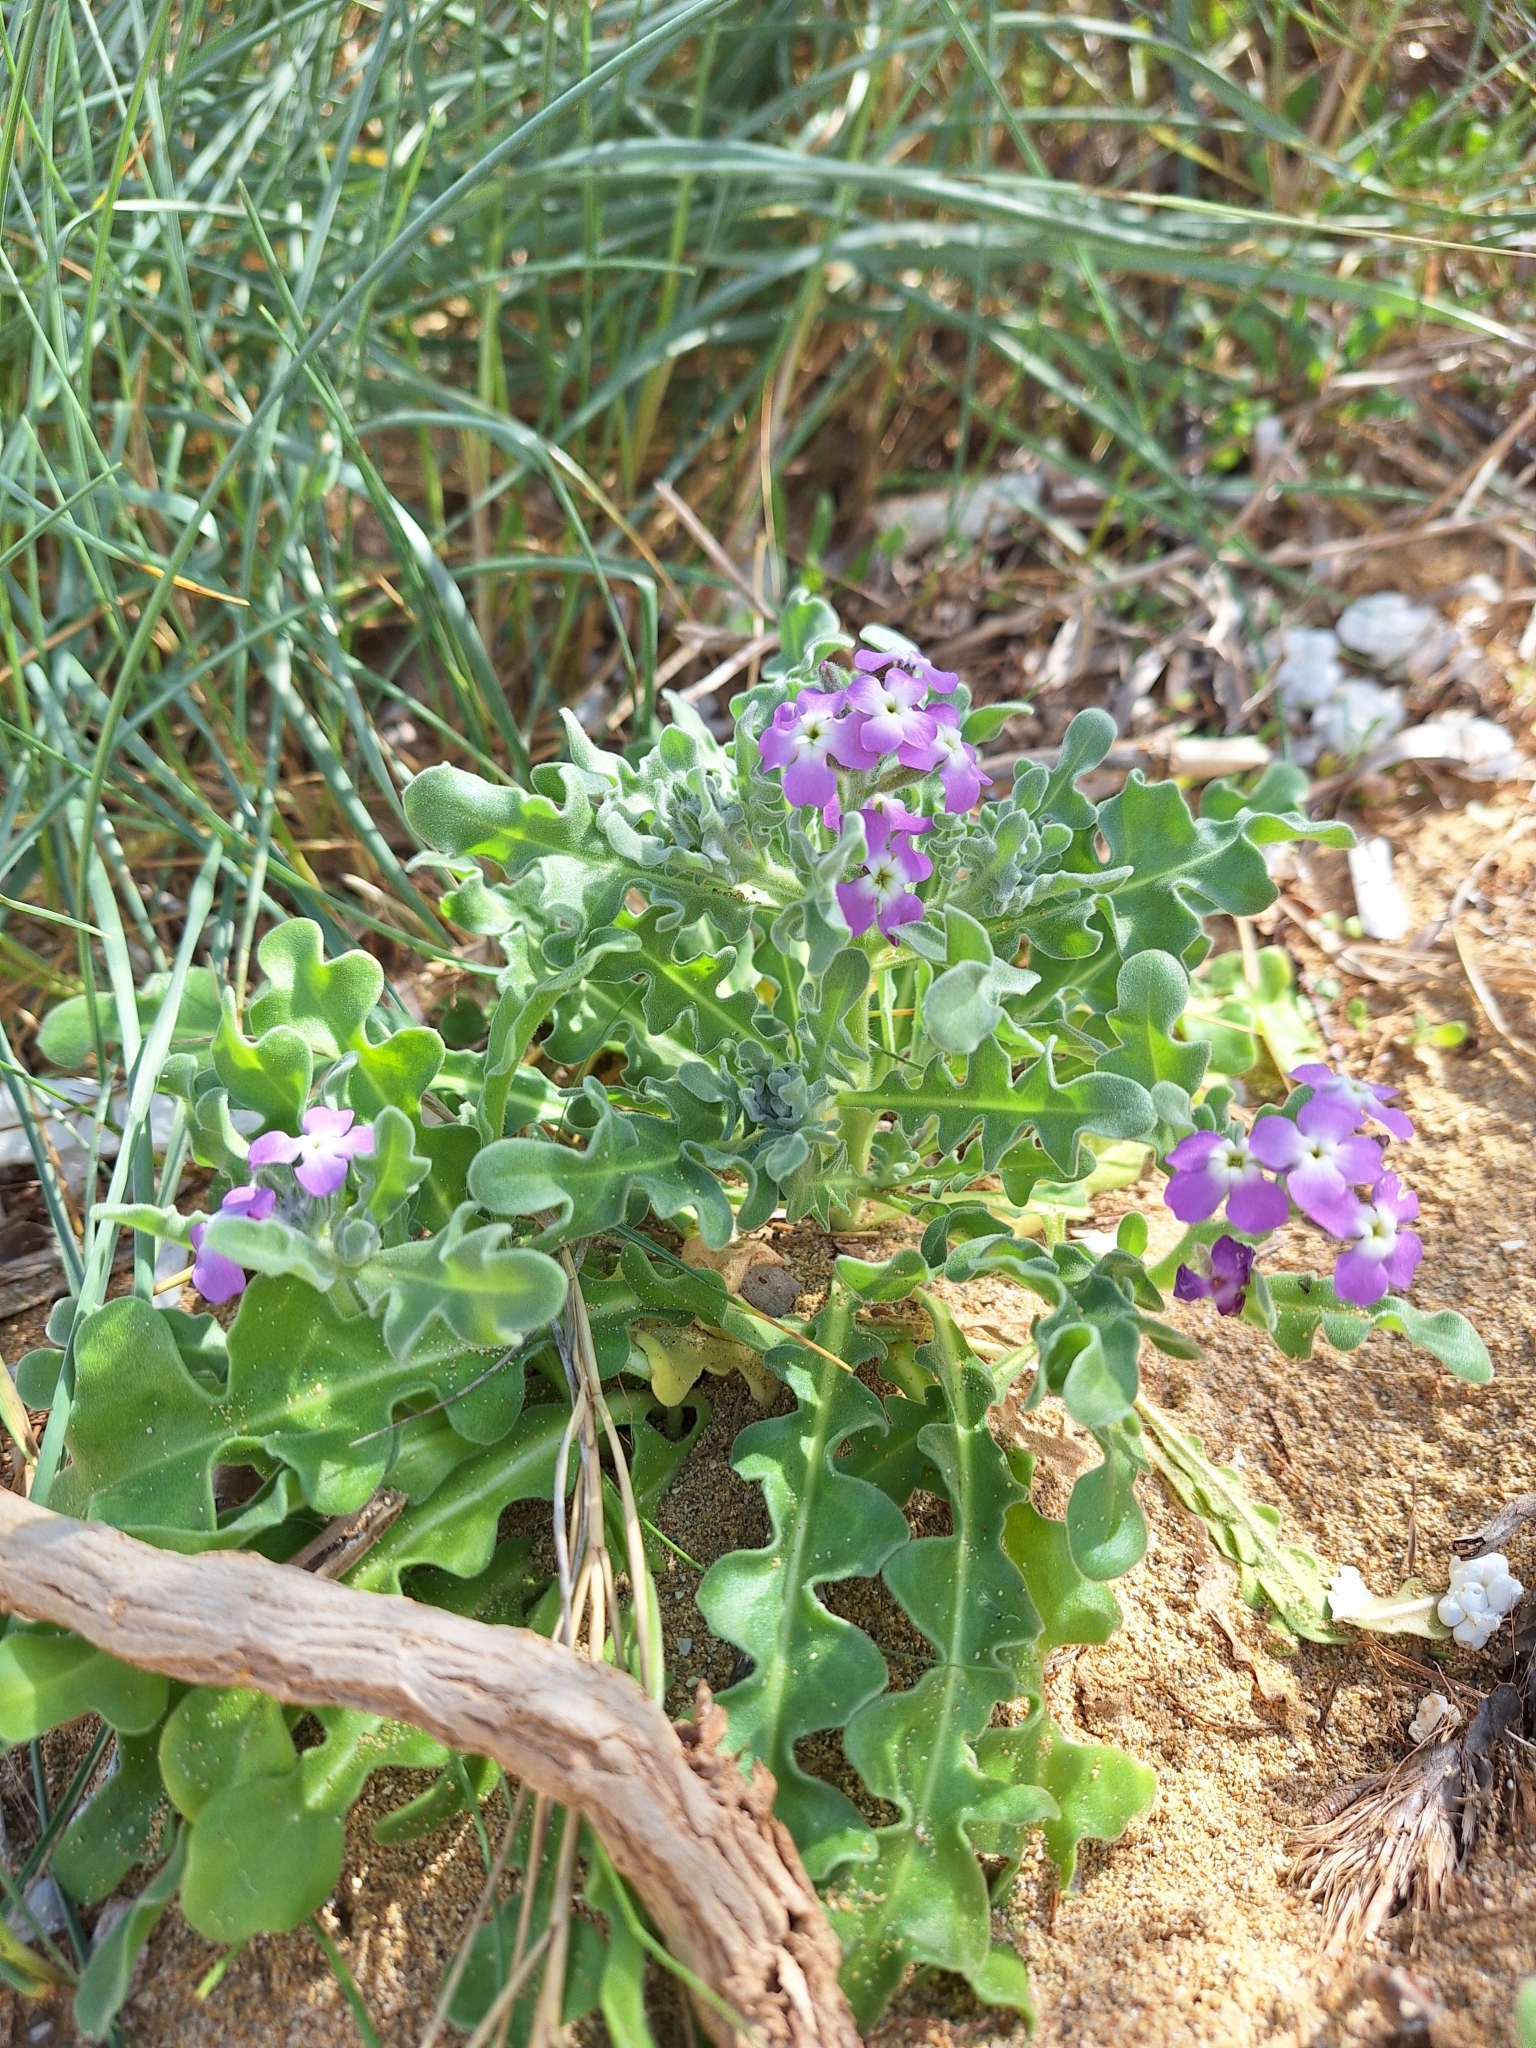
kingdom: Plantae
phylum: Tracheophyta
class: Magnoliopsida
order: Brassicales
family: Brassicaceae
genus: Matthiola
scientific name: Matthiola tricuspidata
